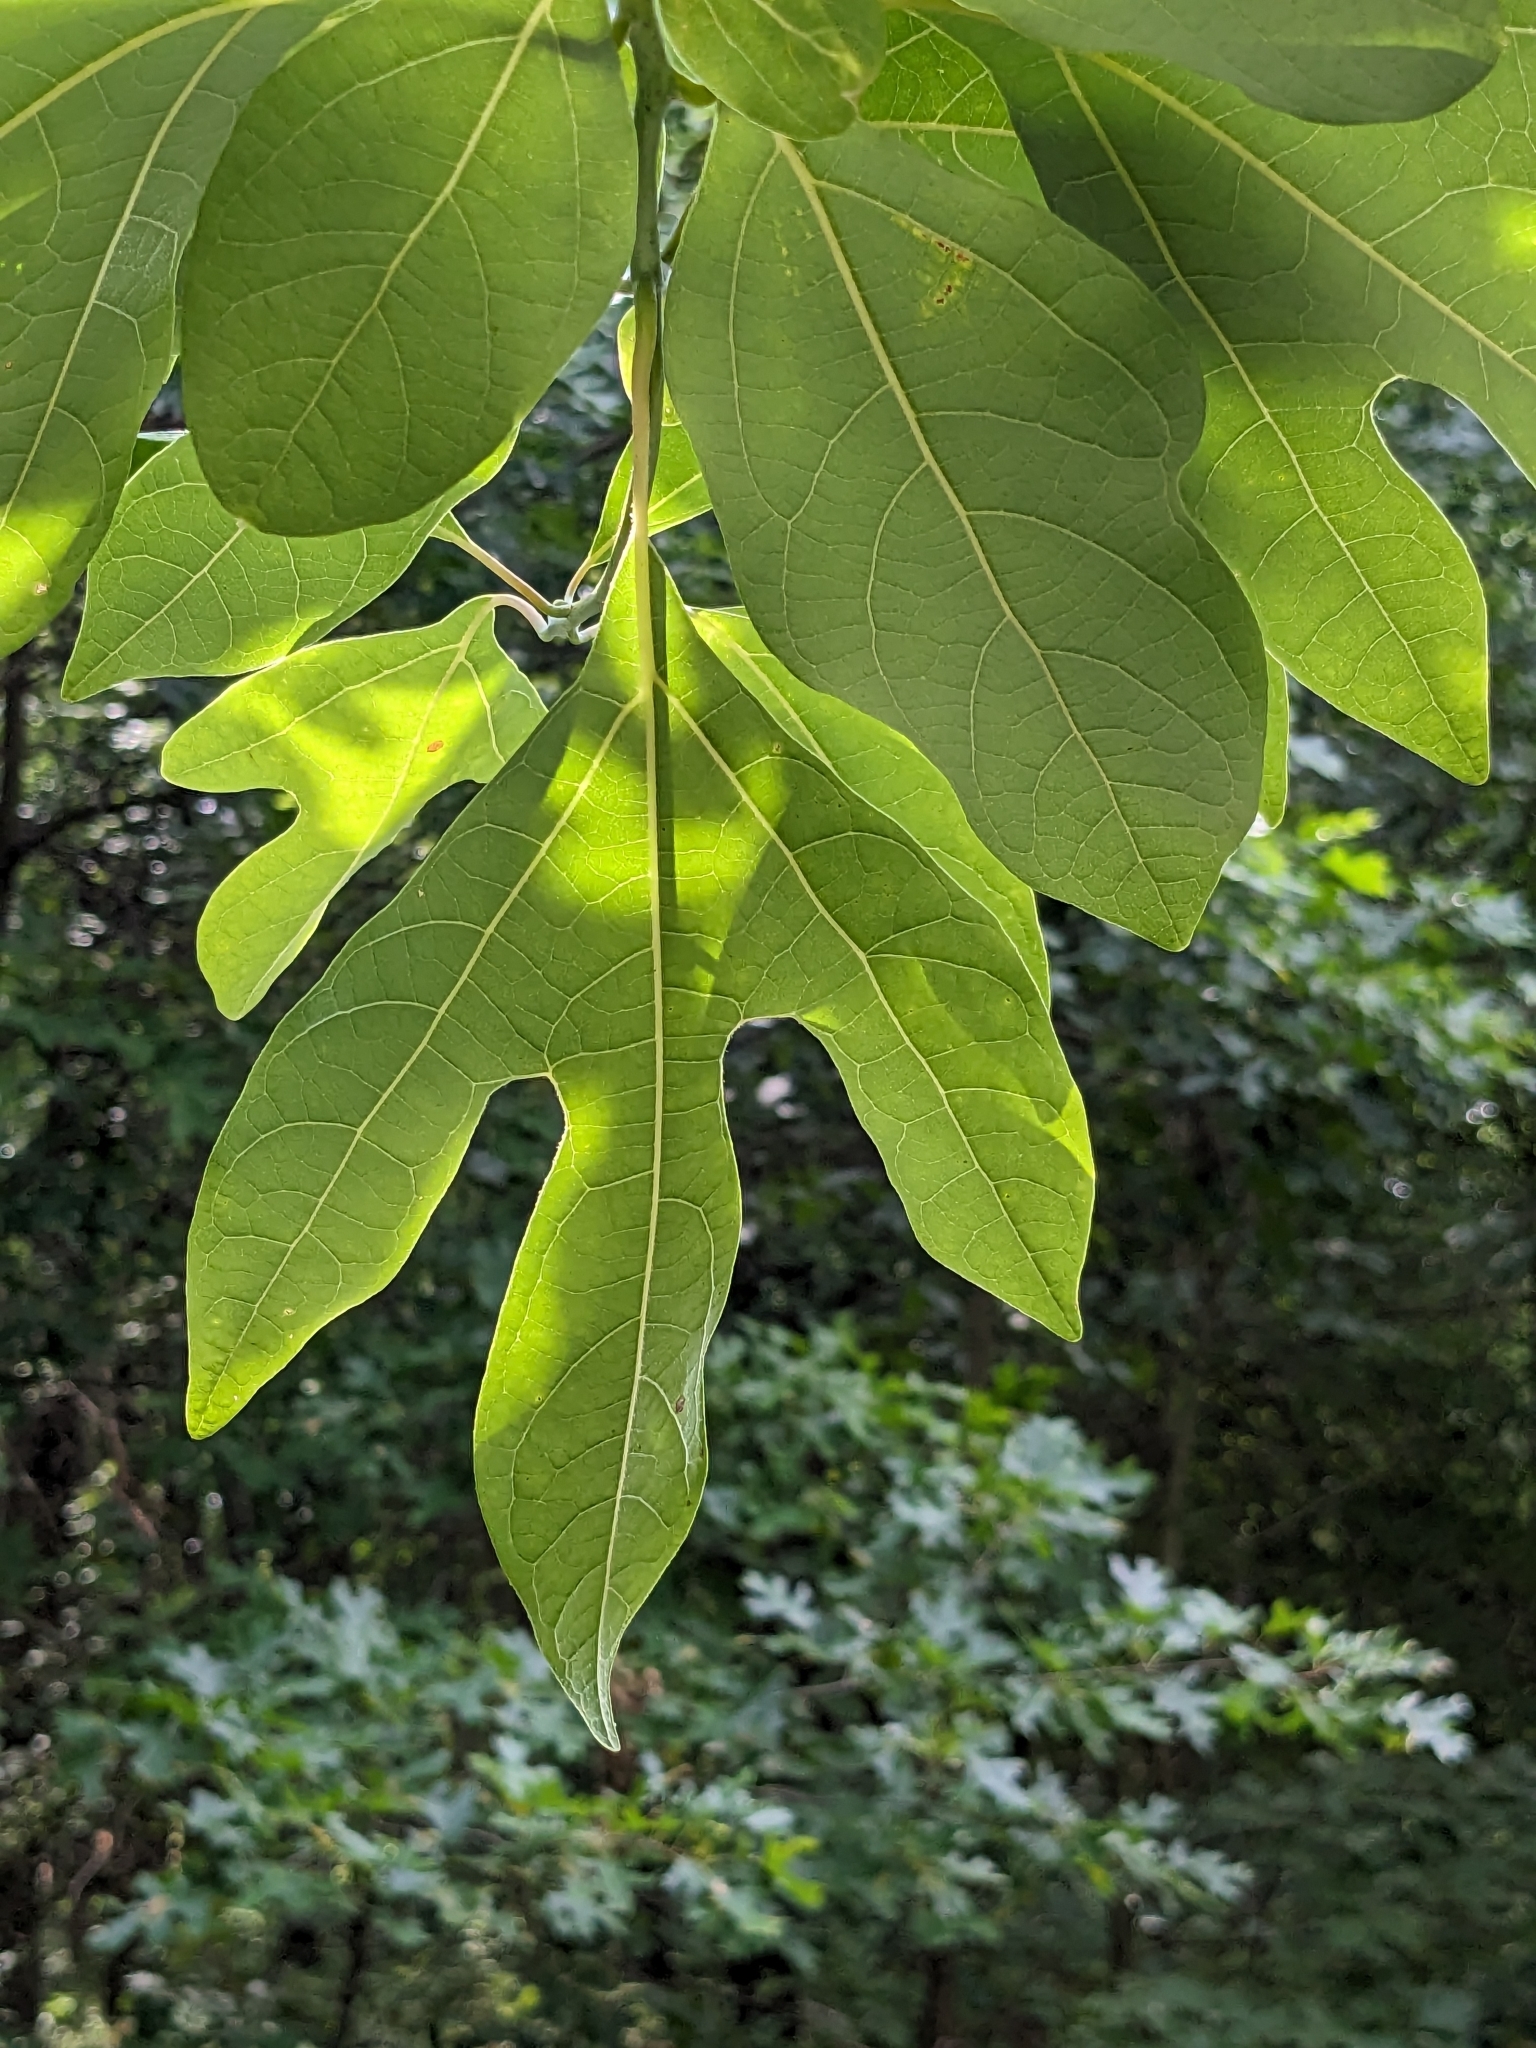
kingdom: Plantae
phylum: Tracheophyta
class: Magnoliopsida
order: Laurales
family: Lauraceae
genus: Sassafras
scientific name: Sassafras albidum
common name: Sassafras
